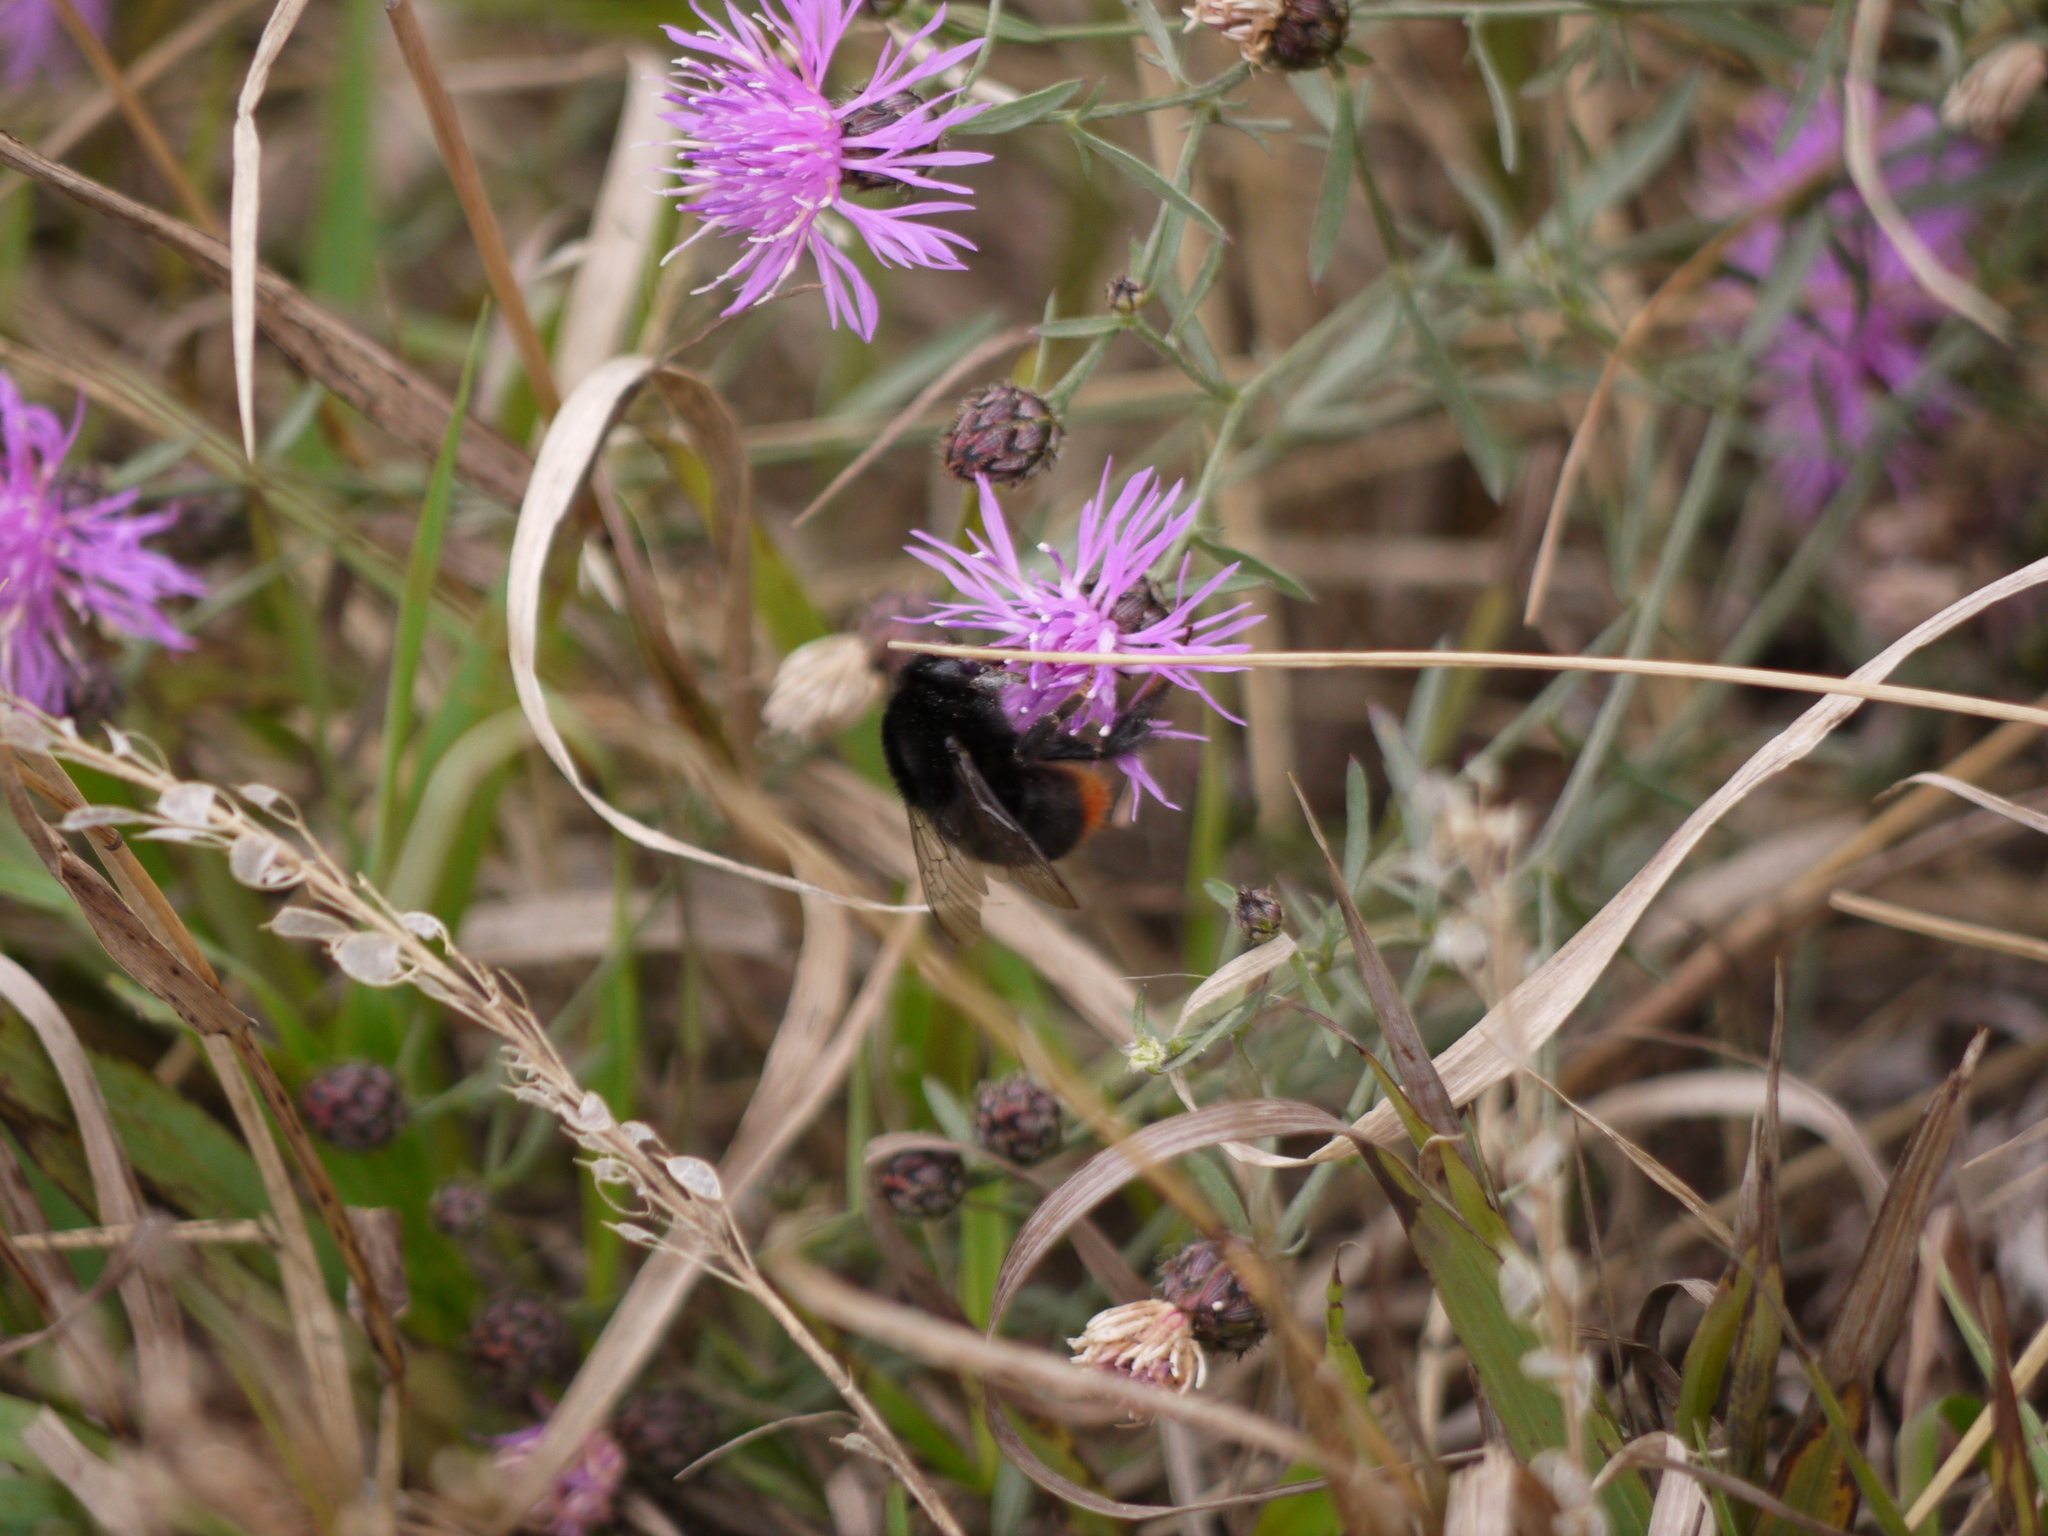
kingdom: Animalia
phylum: Arthropoda
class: Insecta
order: Hymenoptera
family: Apidae
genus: Bombus
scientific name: Bombus lapidarius
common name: Large red-tailed humble-bee
